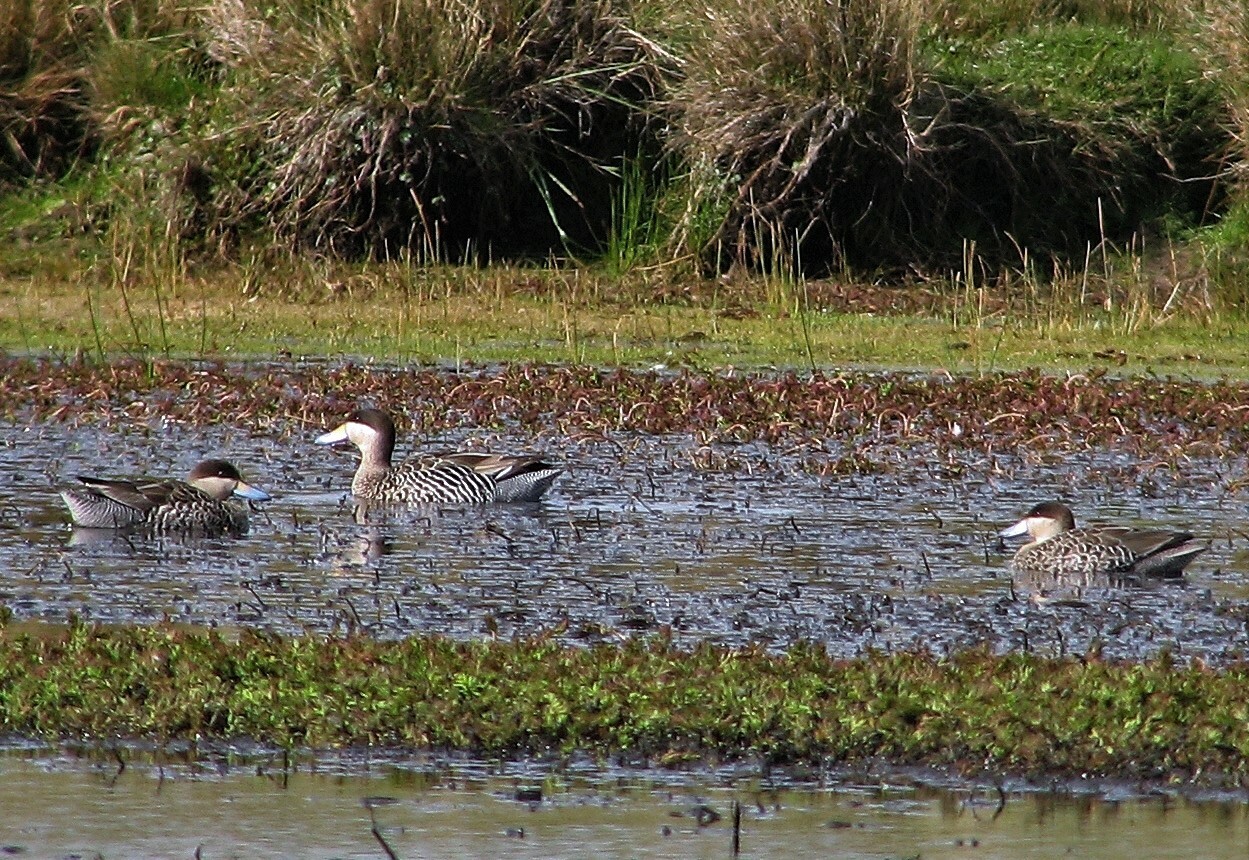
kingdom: Animalia
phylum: Chordata
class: Aves
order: Anseriformes
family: Anatidae
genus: Spatula
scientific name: Spatula versicolor
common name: Silver teal
